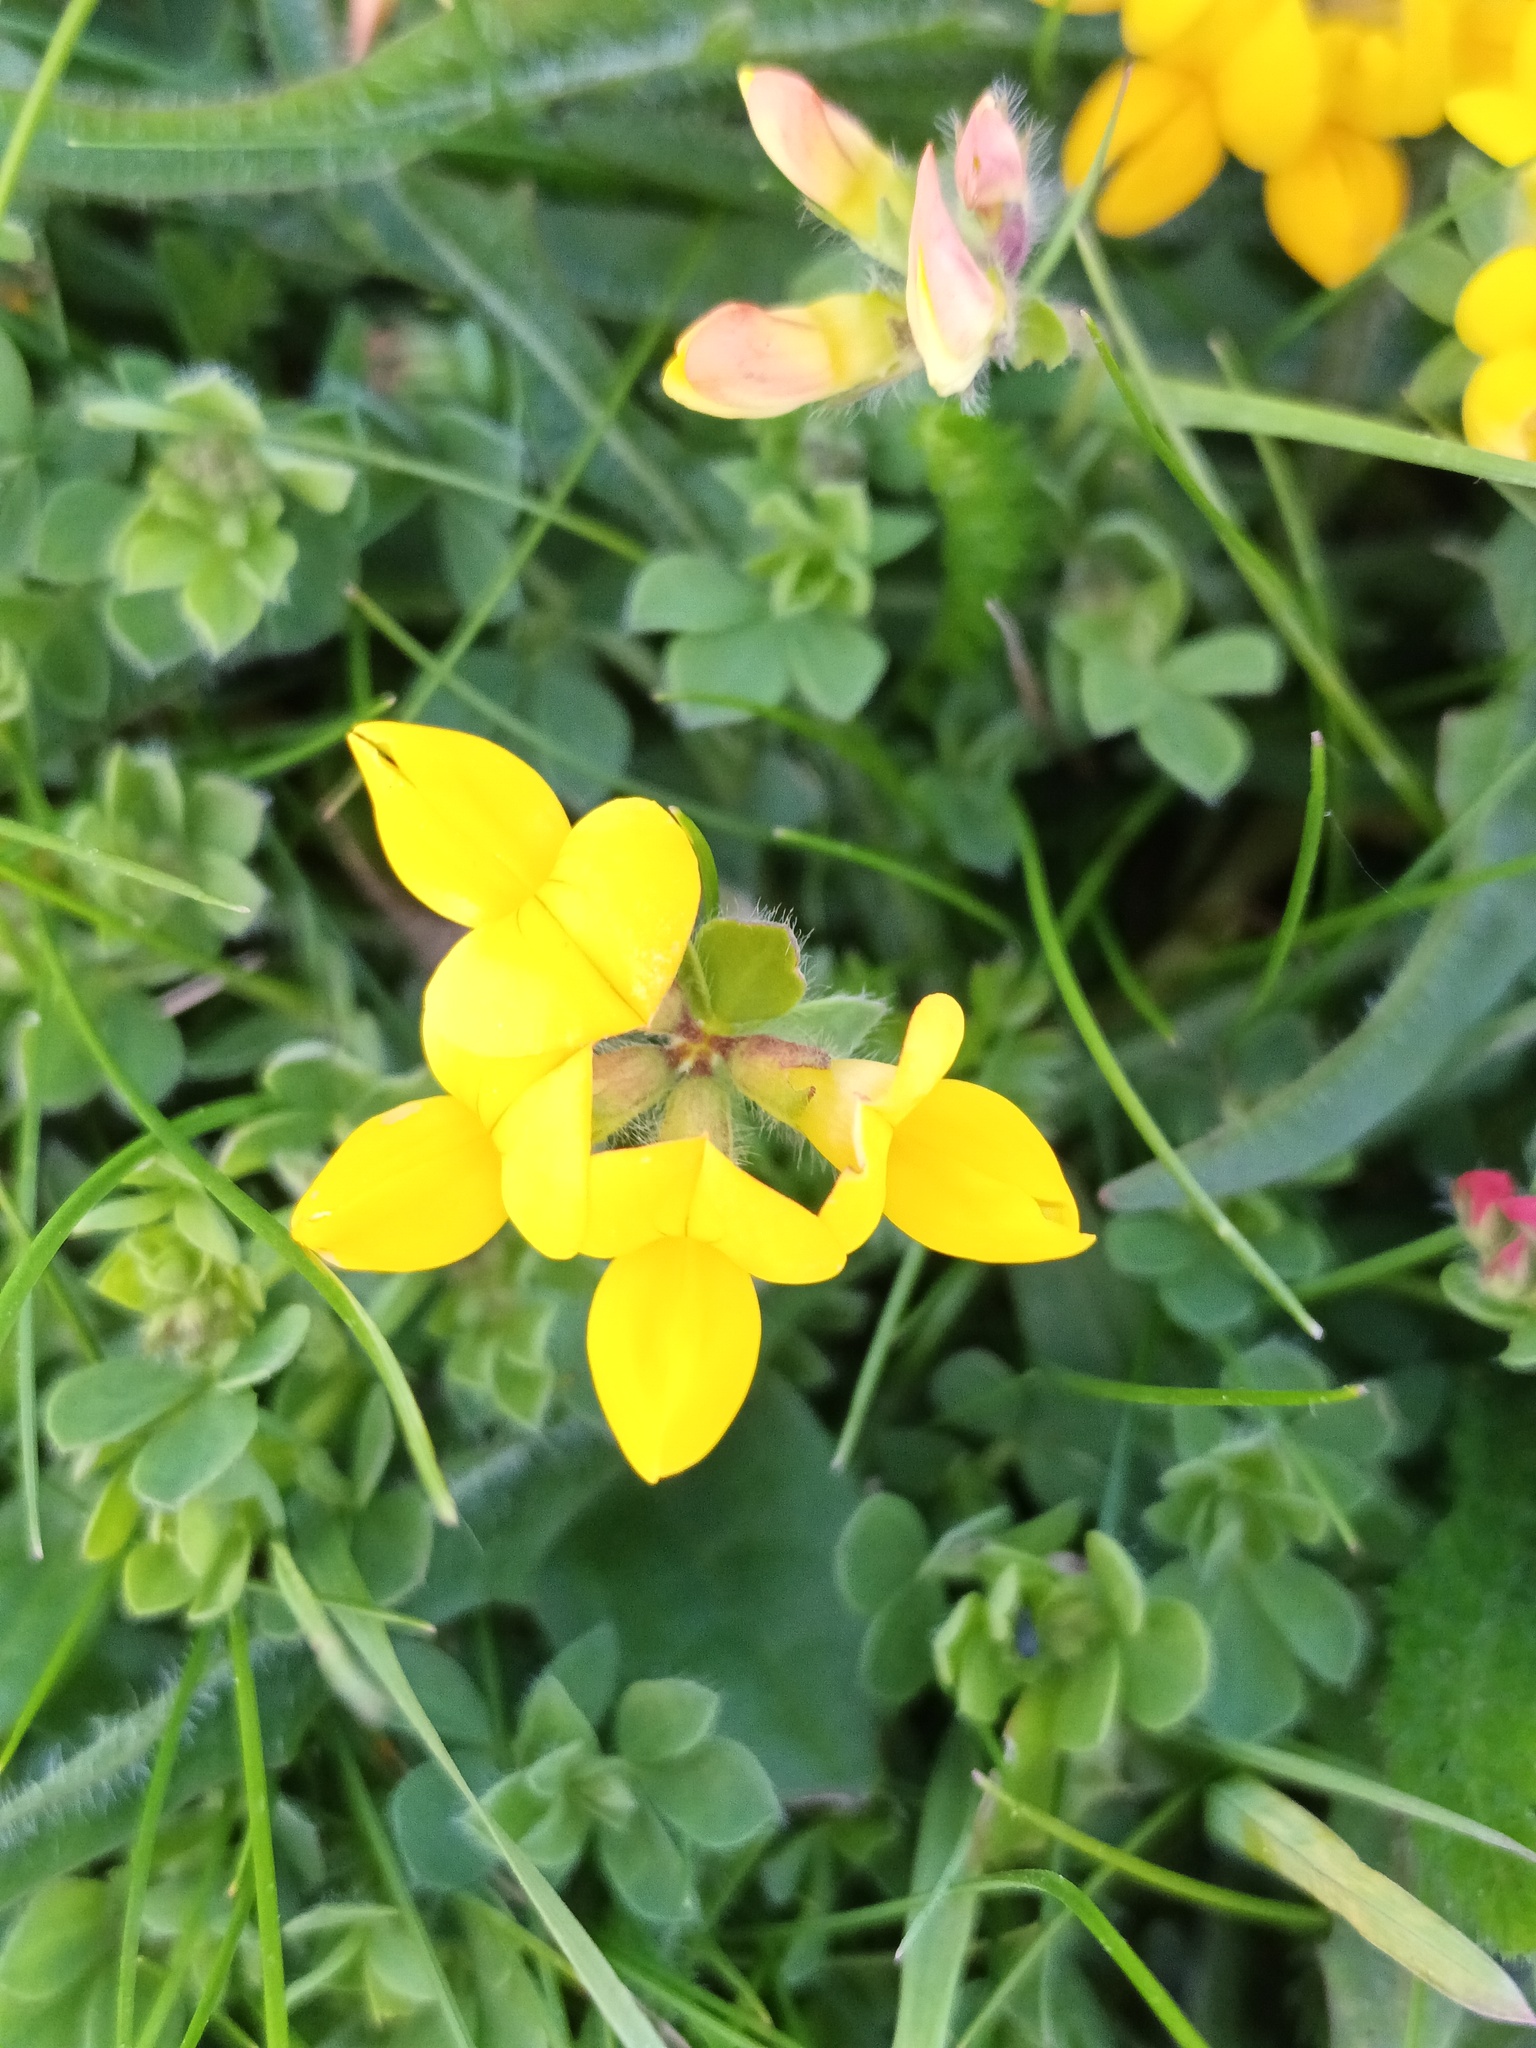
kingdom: Plantae
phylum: Tracheophyta
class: Magnoliopsida
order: Fabales
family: Fabaceae
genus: Lotus
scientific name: Lotus corniculatus
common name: Common bird's-foot-trefoil
